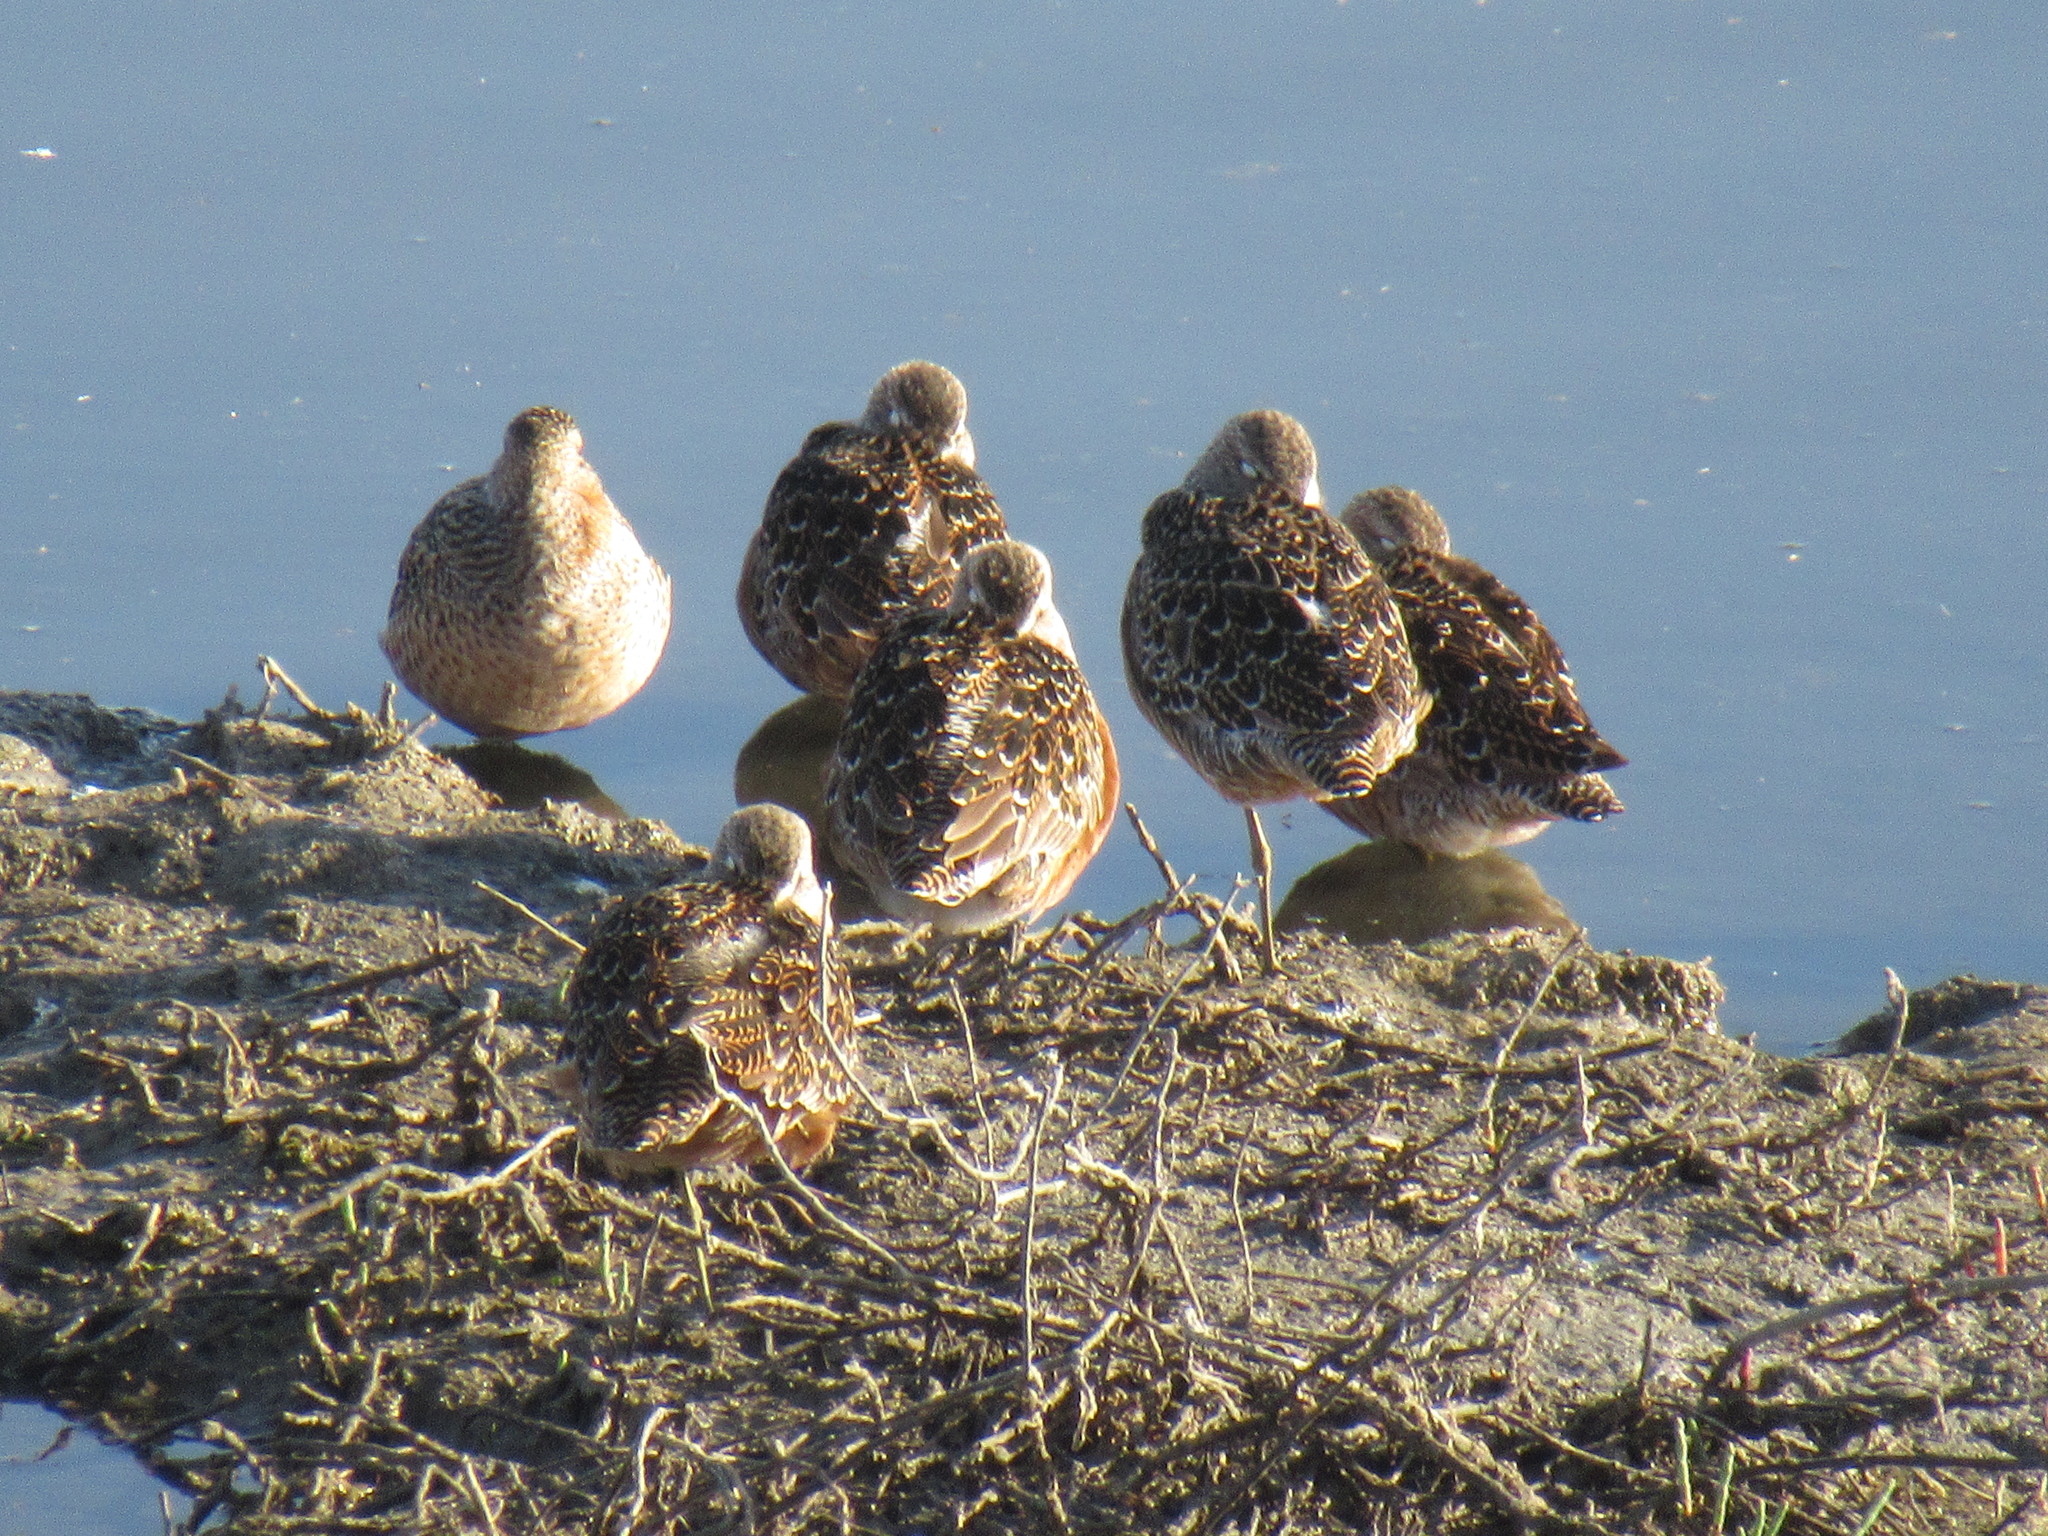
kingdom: Animalia
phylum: Chordata
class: Aves
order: Charadriiformes
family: Scolopacidae
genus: Limnodromus
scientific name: Limnodromus scolopaceus
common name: Long-billed dowitcher
